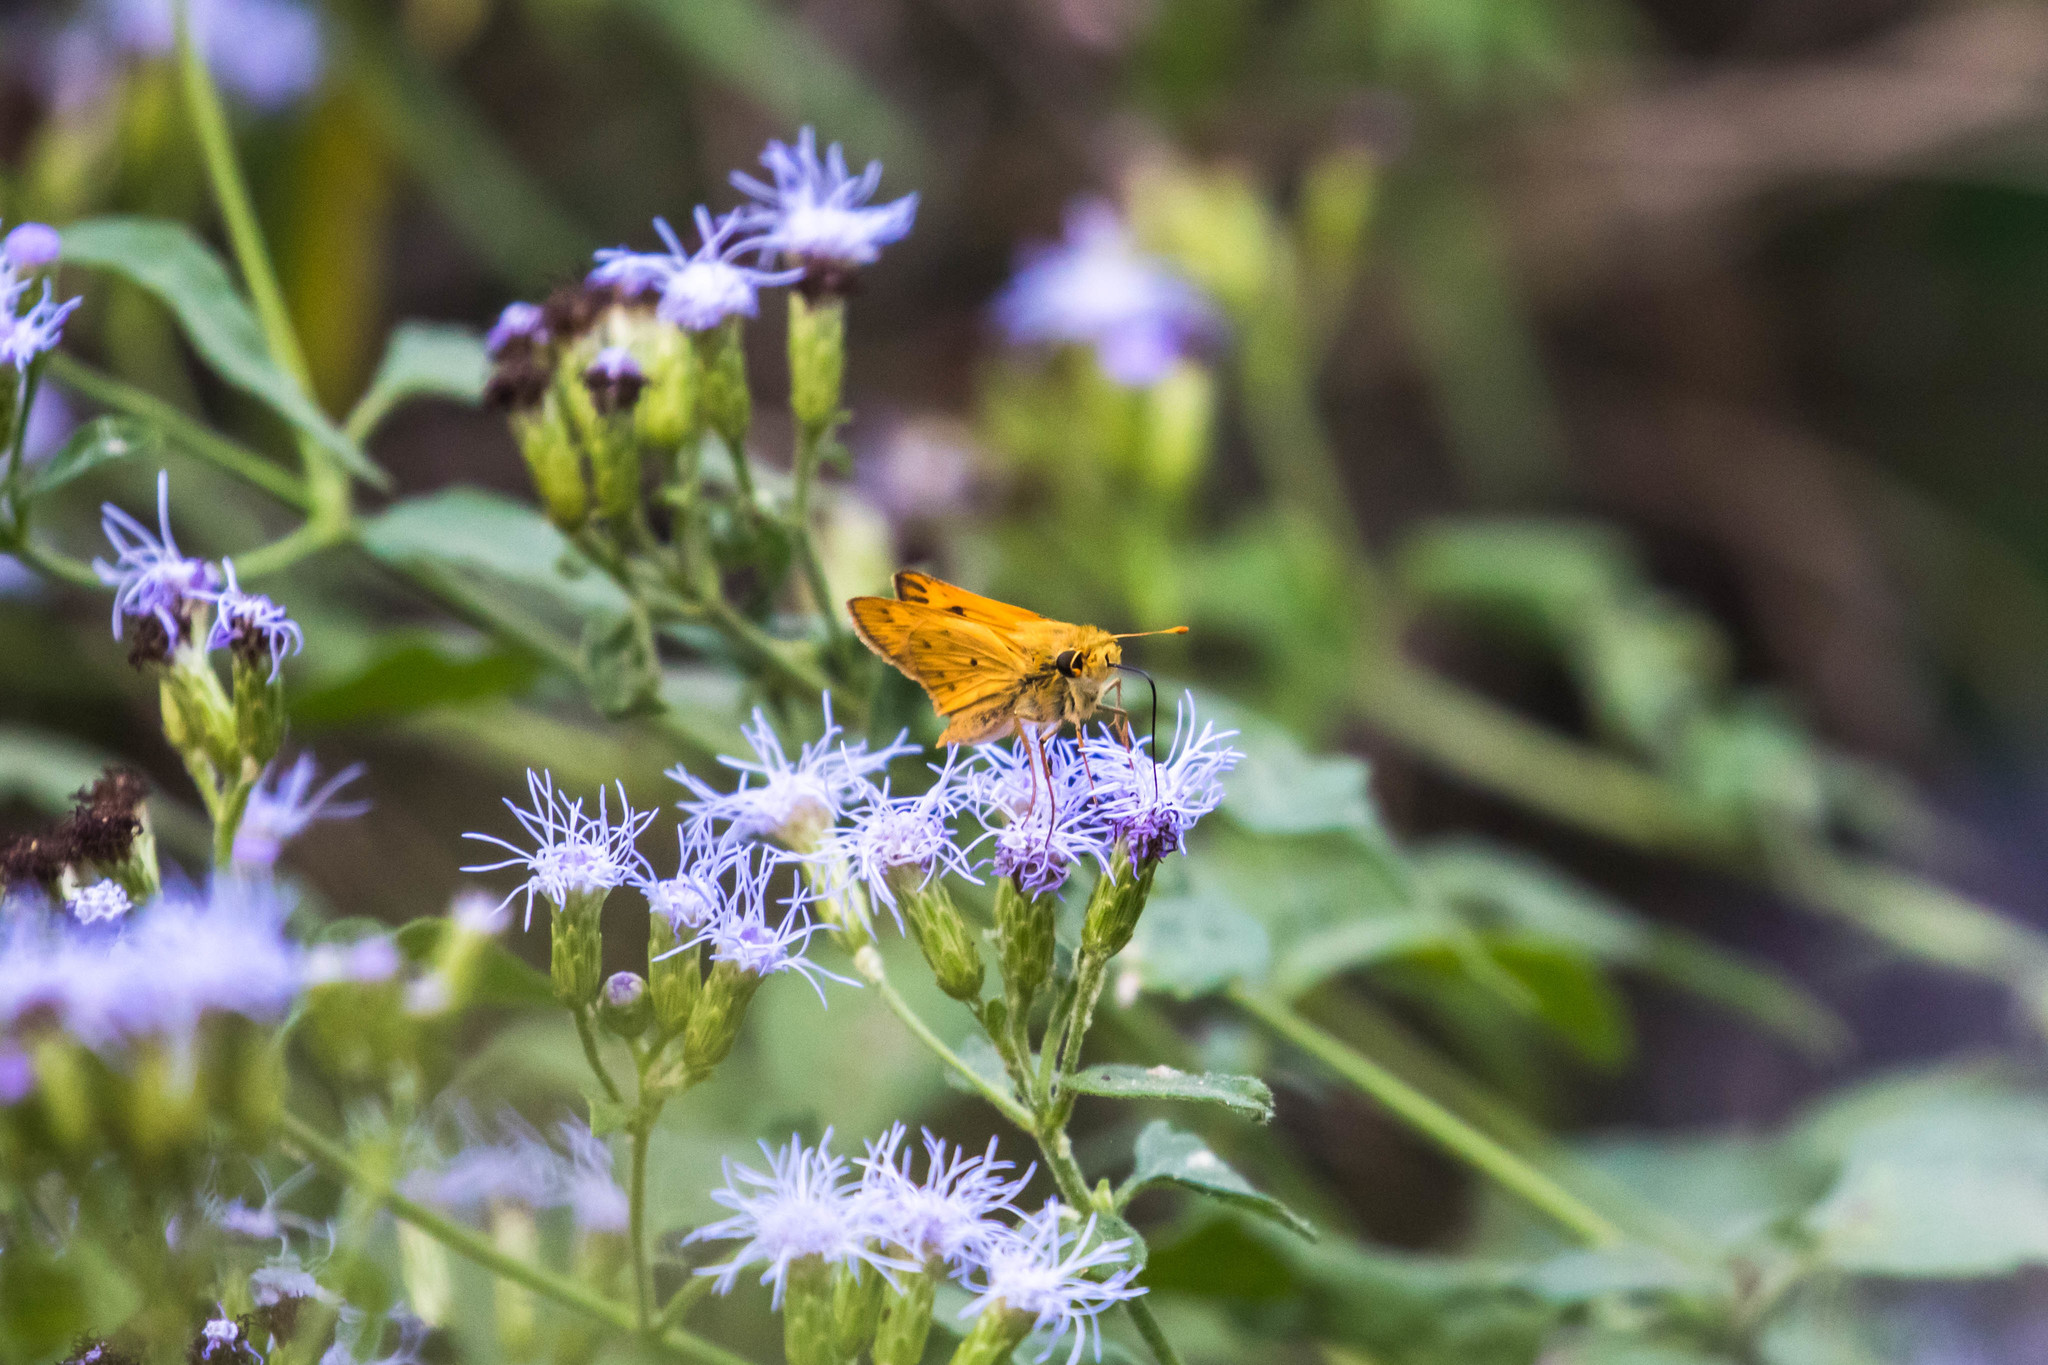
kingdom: Animalia
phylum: Arthropoda
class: Insecta
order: Lepidoptera
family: Hesperiidae
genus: Hylephila
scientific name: Hylephila phyleus
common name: Fiery skipper
